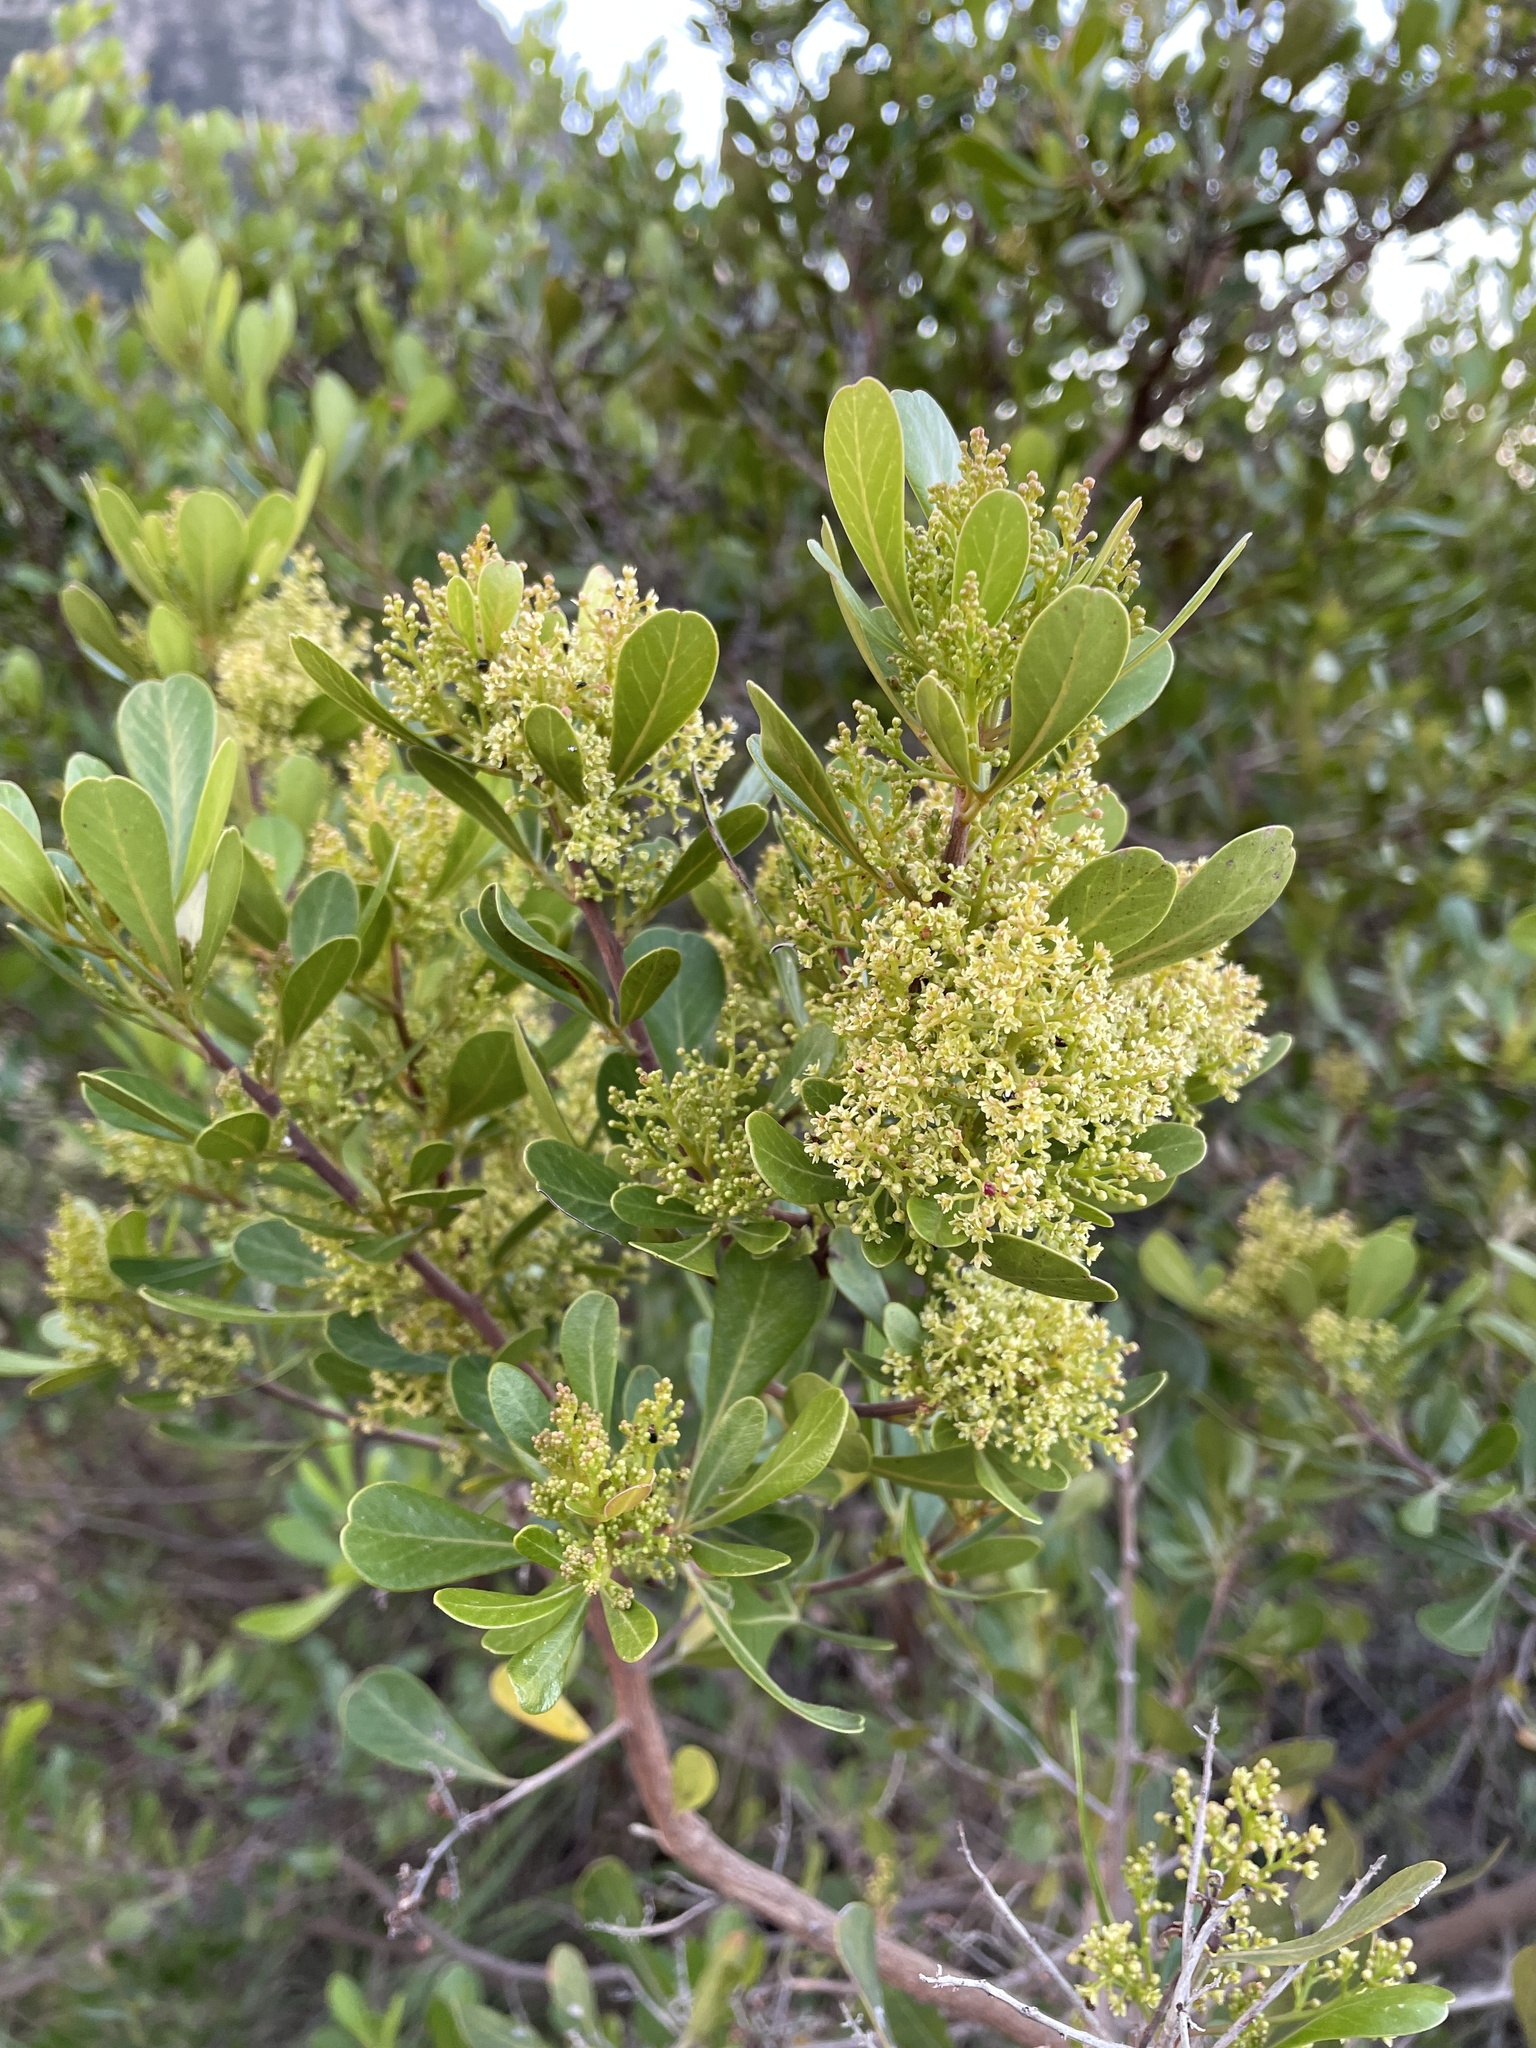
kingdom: Plantae
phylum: Tracheophyta
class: Magnoliopsida
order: Sapindales
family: Anacardiaceae
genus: Searsia
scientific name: Searsia lucida
